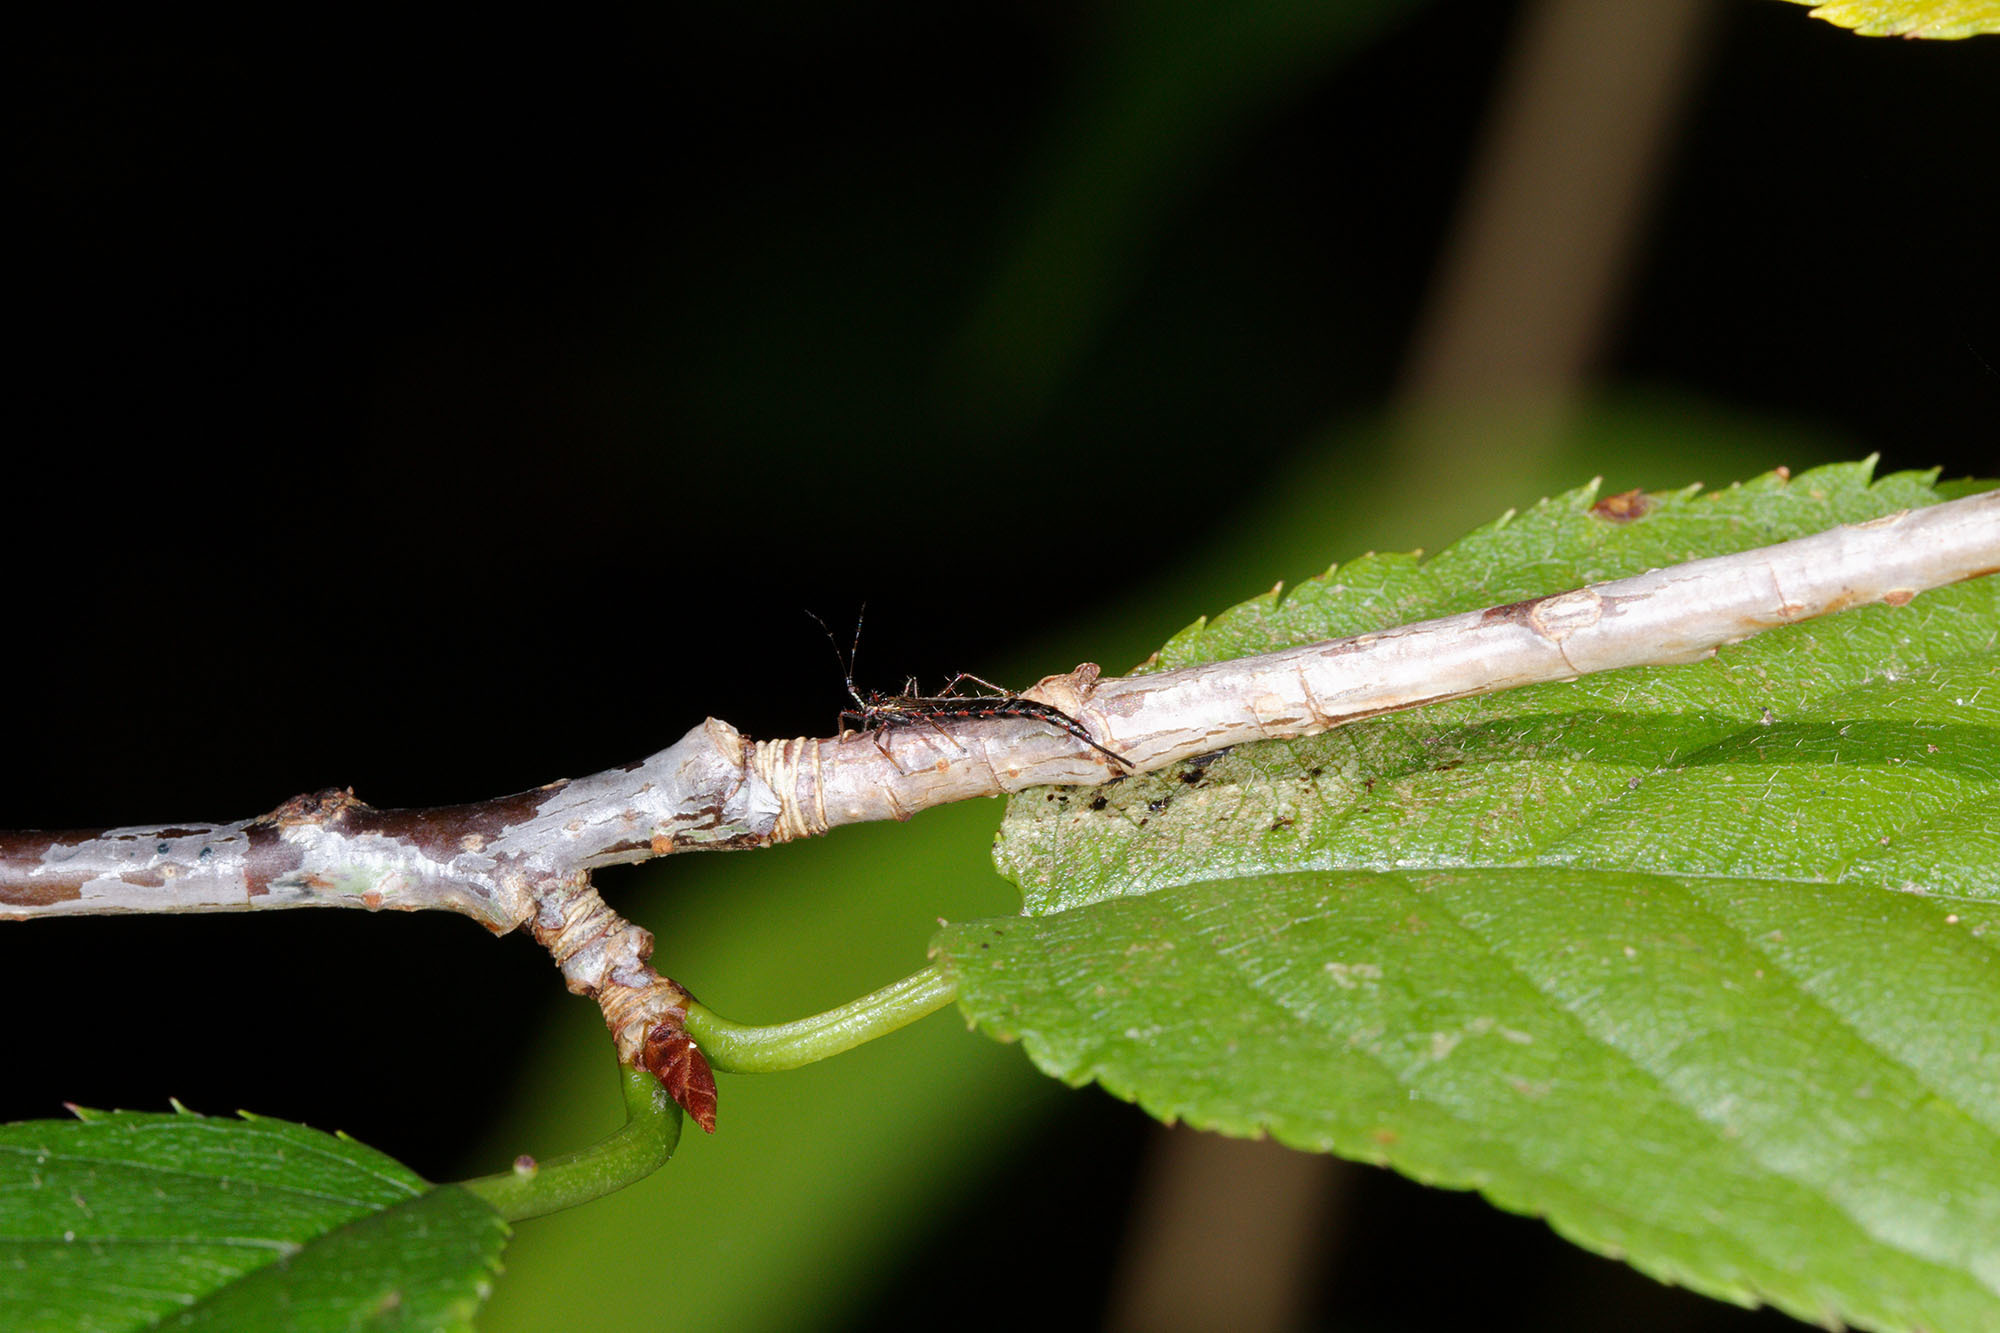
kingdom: Animalia
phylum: Arthropoda
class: Insecta
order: Thysanoptera
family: Phlaeothripidae
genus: Idolothrips
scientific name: Idolothrips spectrum
